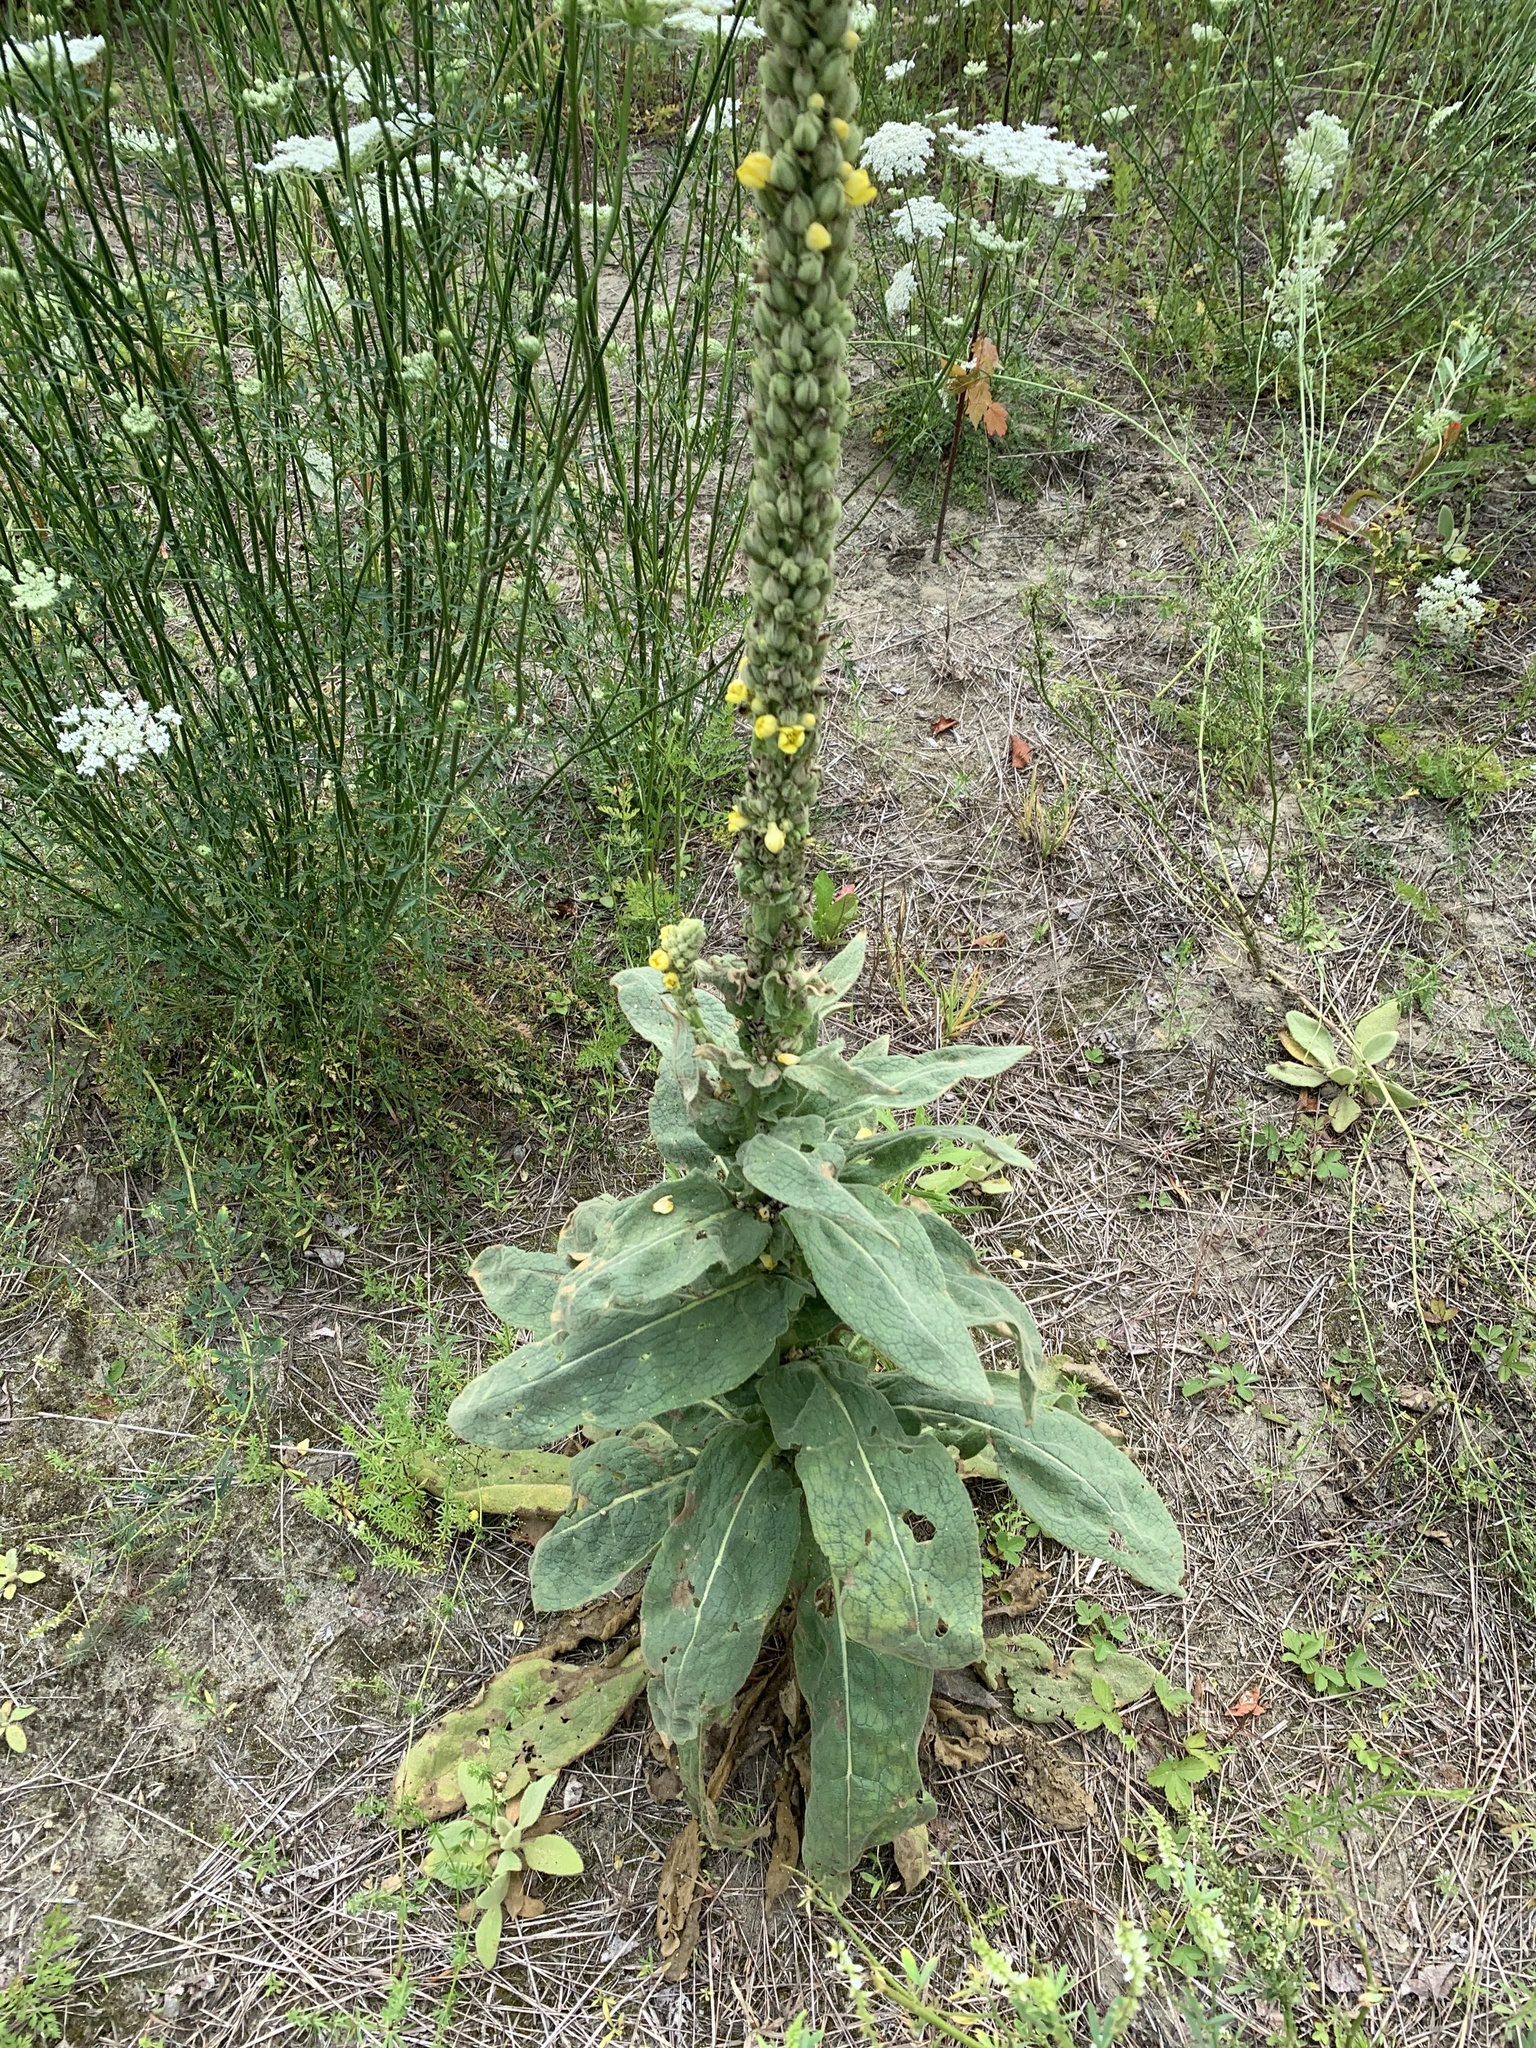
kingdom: Plantae
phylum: Tracheophyta
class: Magnoliopsida
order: Lamiales
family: Scrophulariaceae
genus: Verbascum
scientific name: Verbascum thapsus
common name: Common mullein
